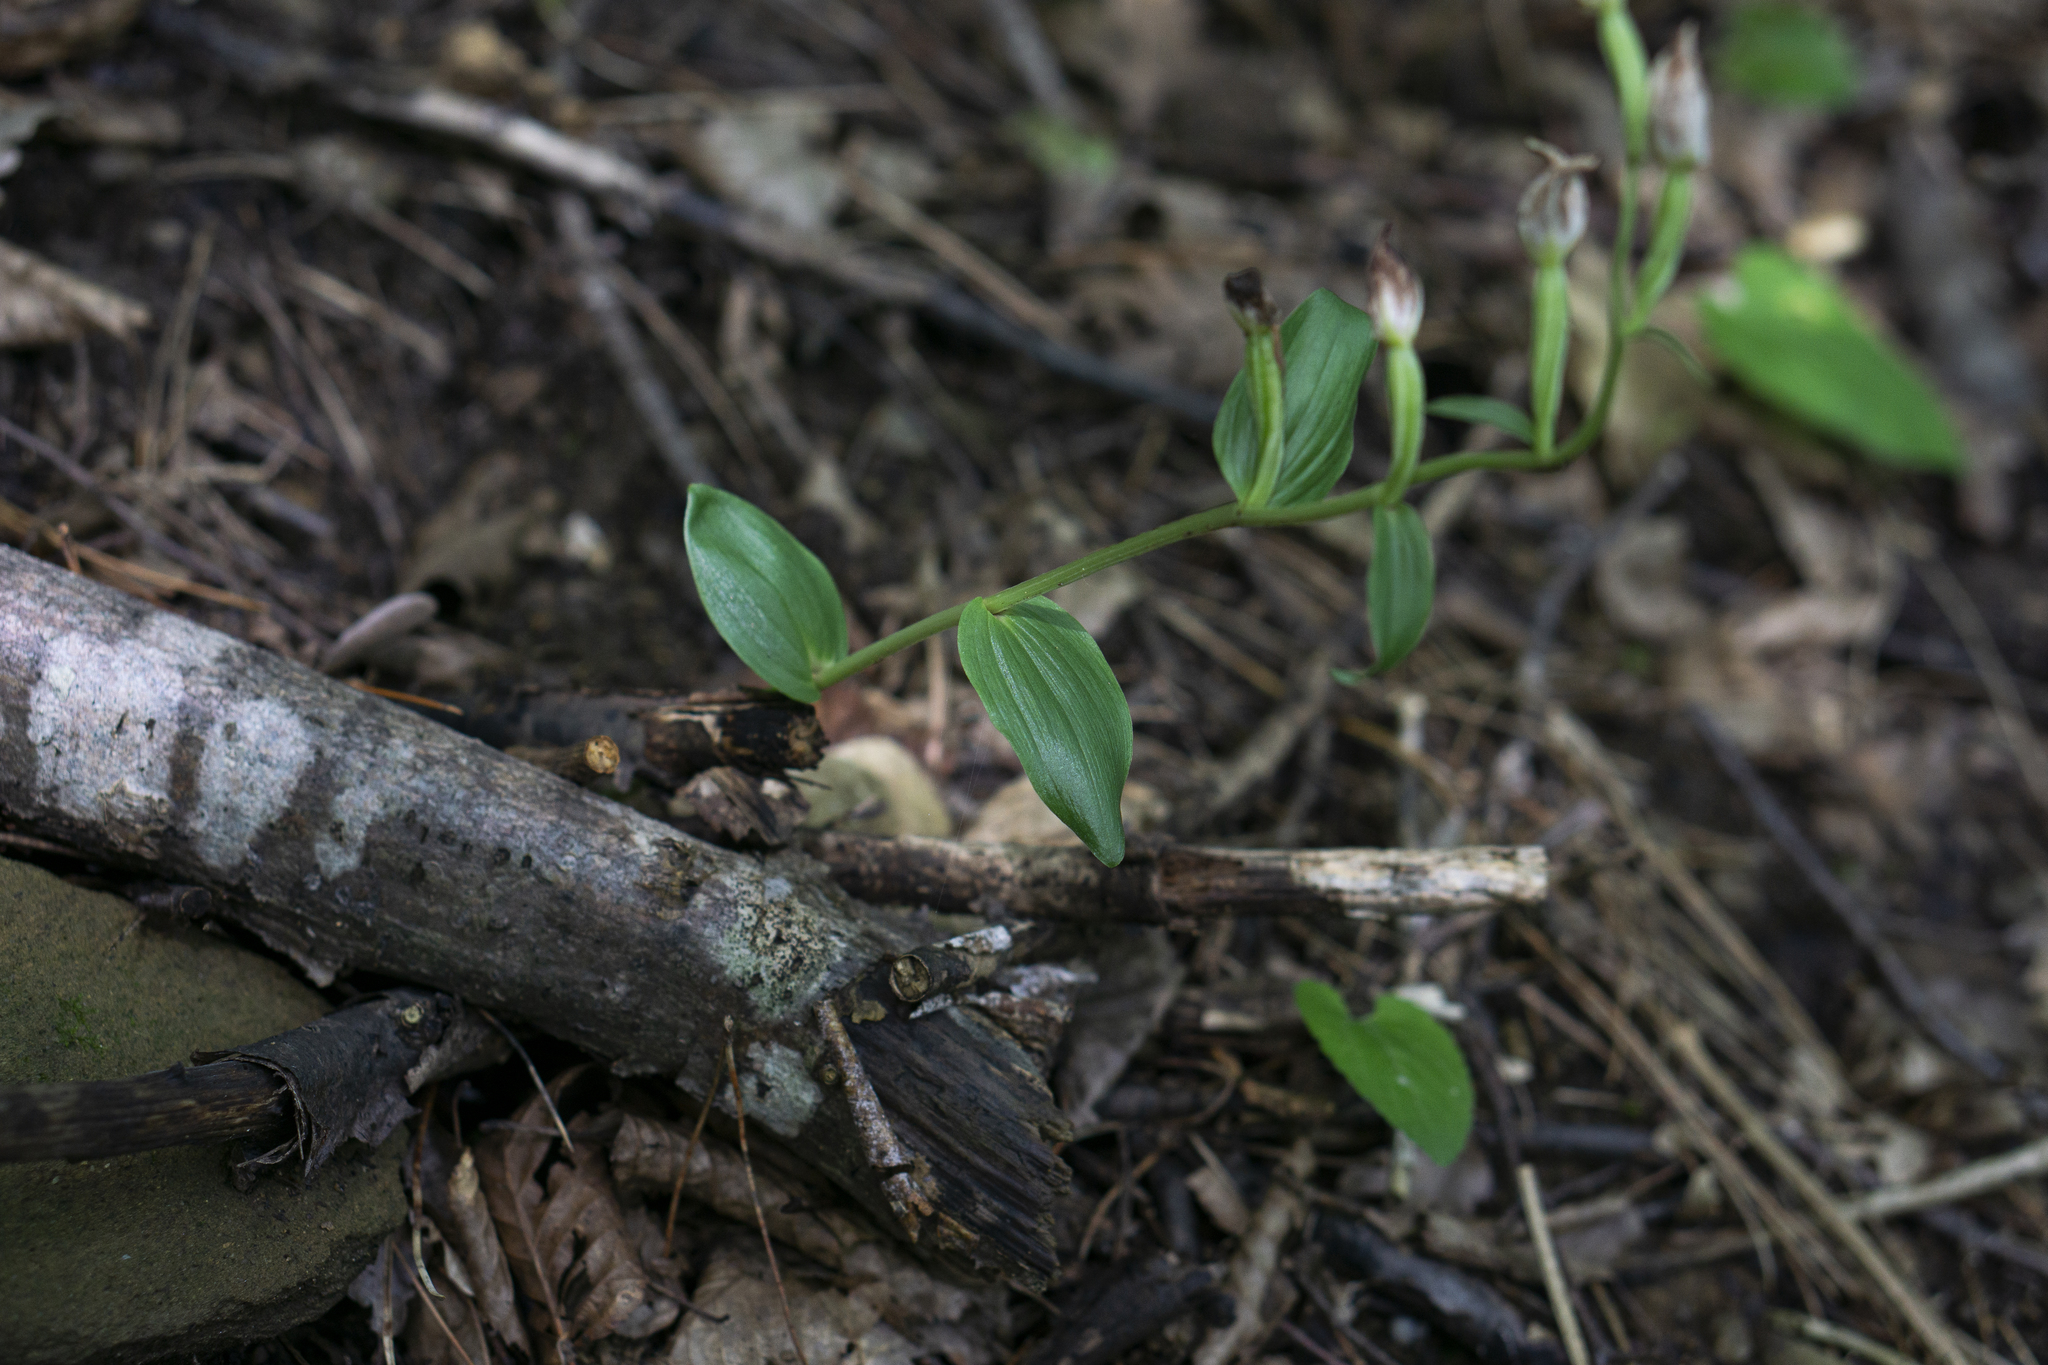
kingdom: Plantae
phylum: Tracheophyta
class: Liliopsida
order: Asparagales
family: Orchidaceae
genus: Cephalanthera
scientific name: Cephalanthera damasonium
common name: White helleborine
